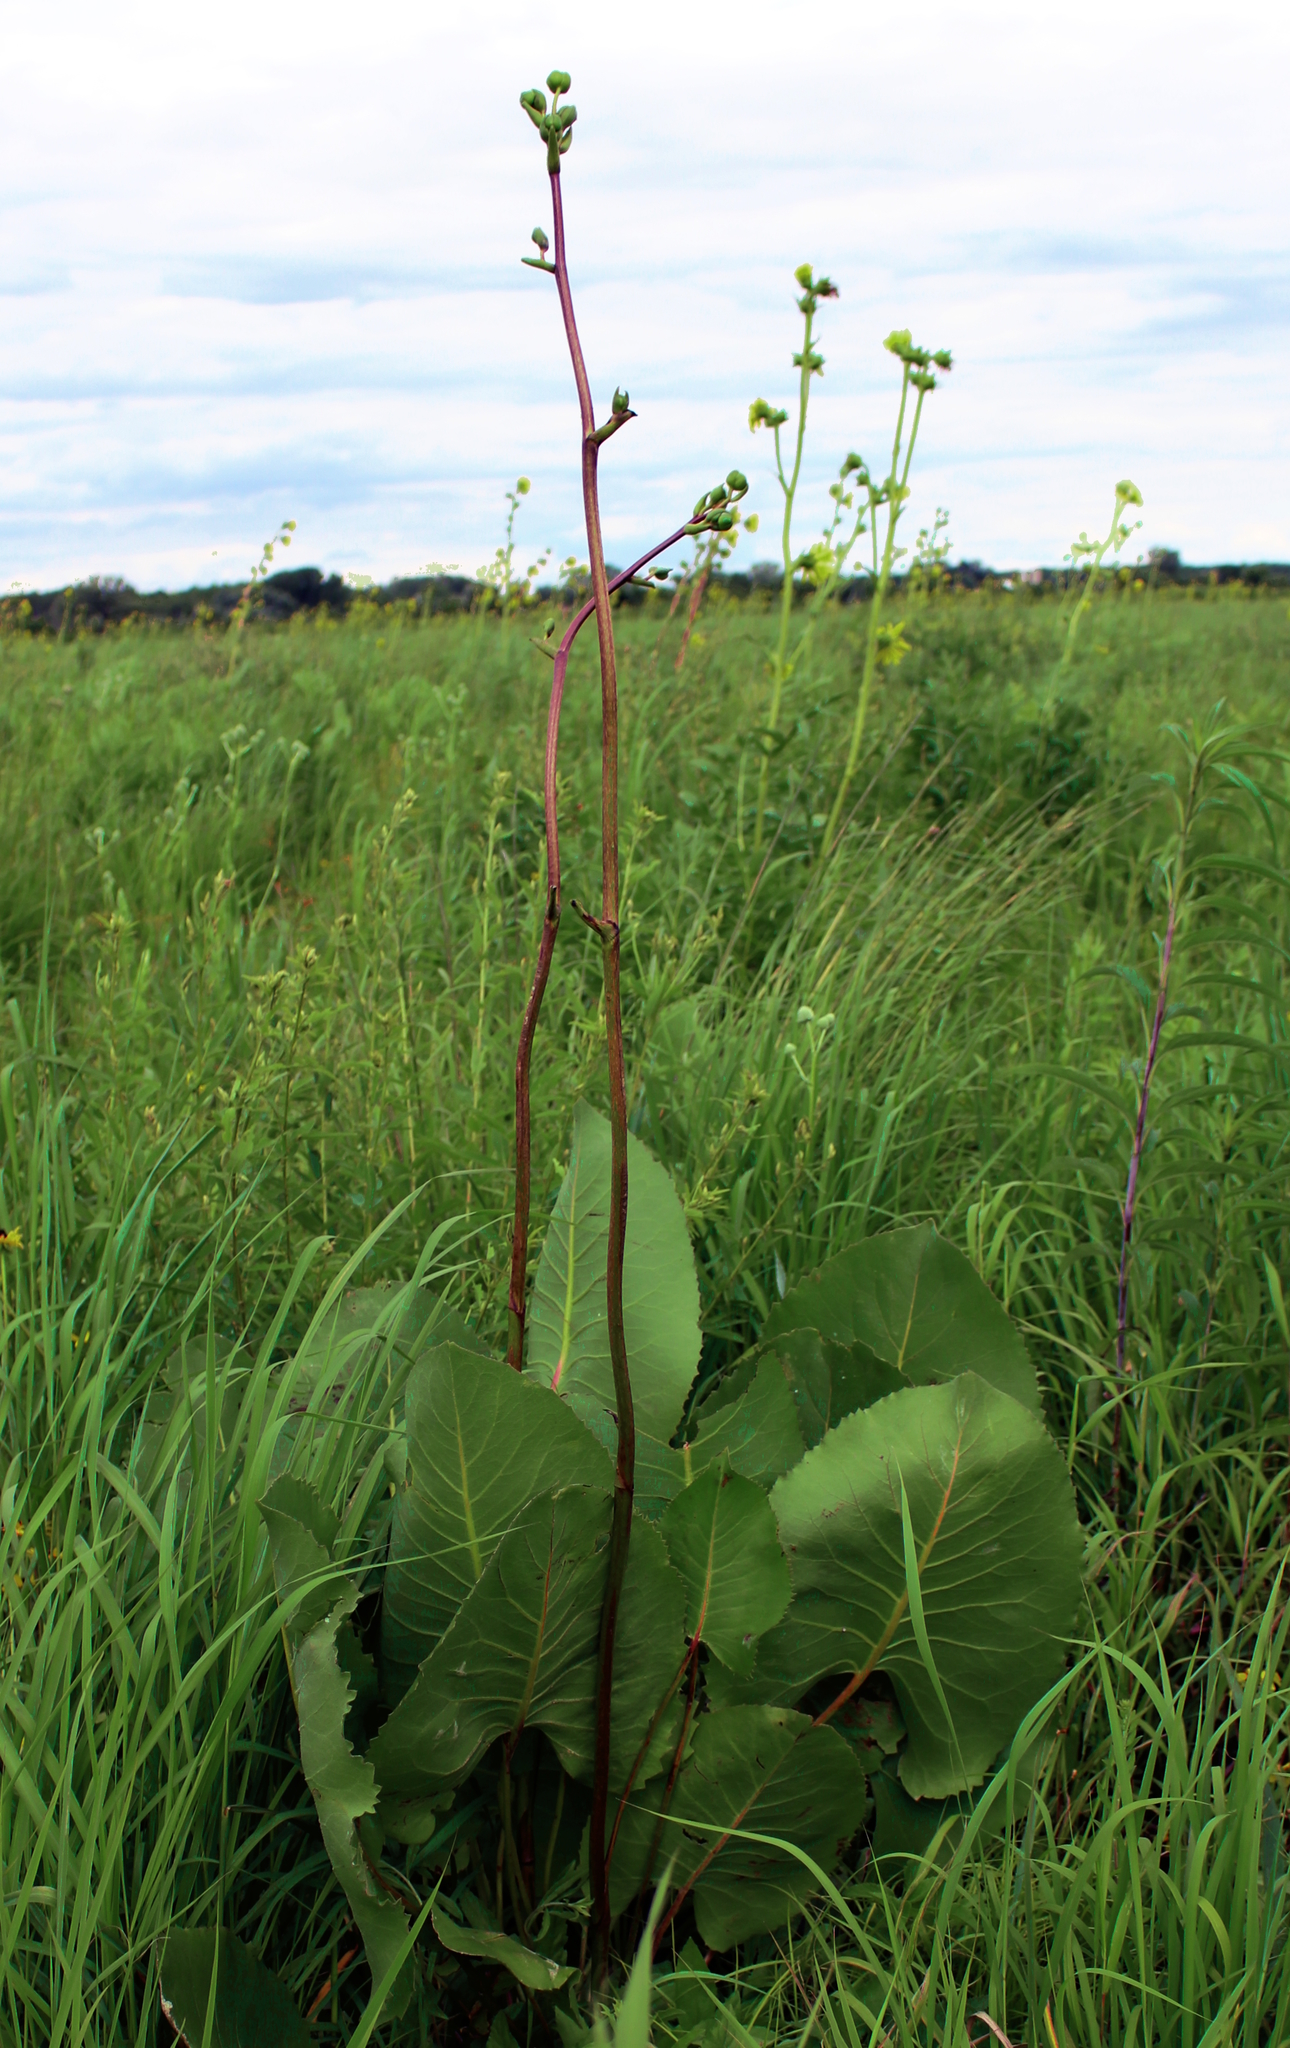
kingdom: Plantae
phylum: Tracheophyta
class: Magnoliopsida
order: Asterales
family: Asteraceae
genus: Silphium
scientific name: Silphium terebinthinaceum
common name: Basal-leaf rosinweed
